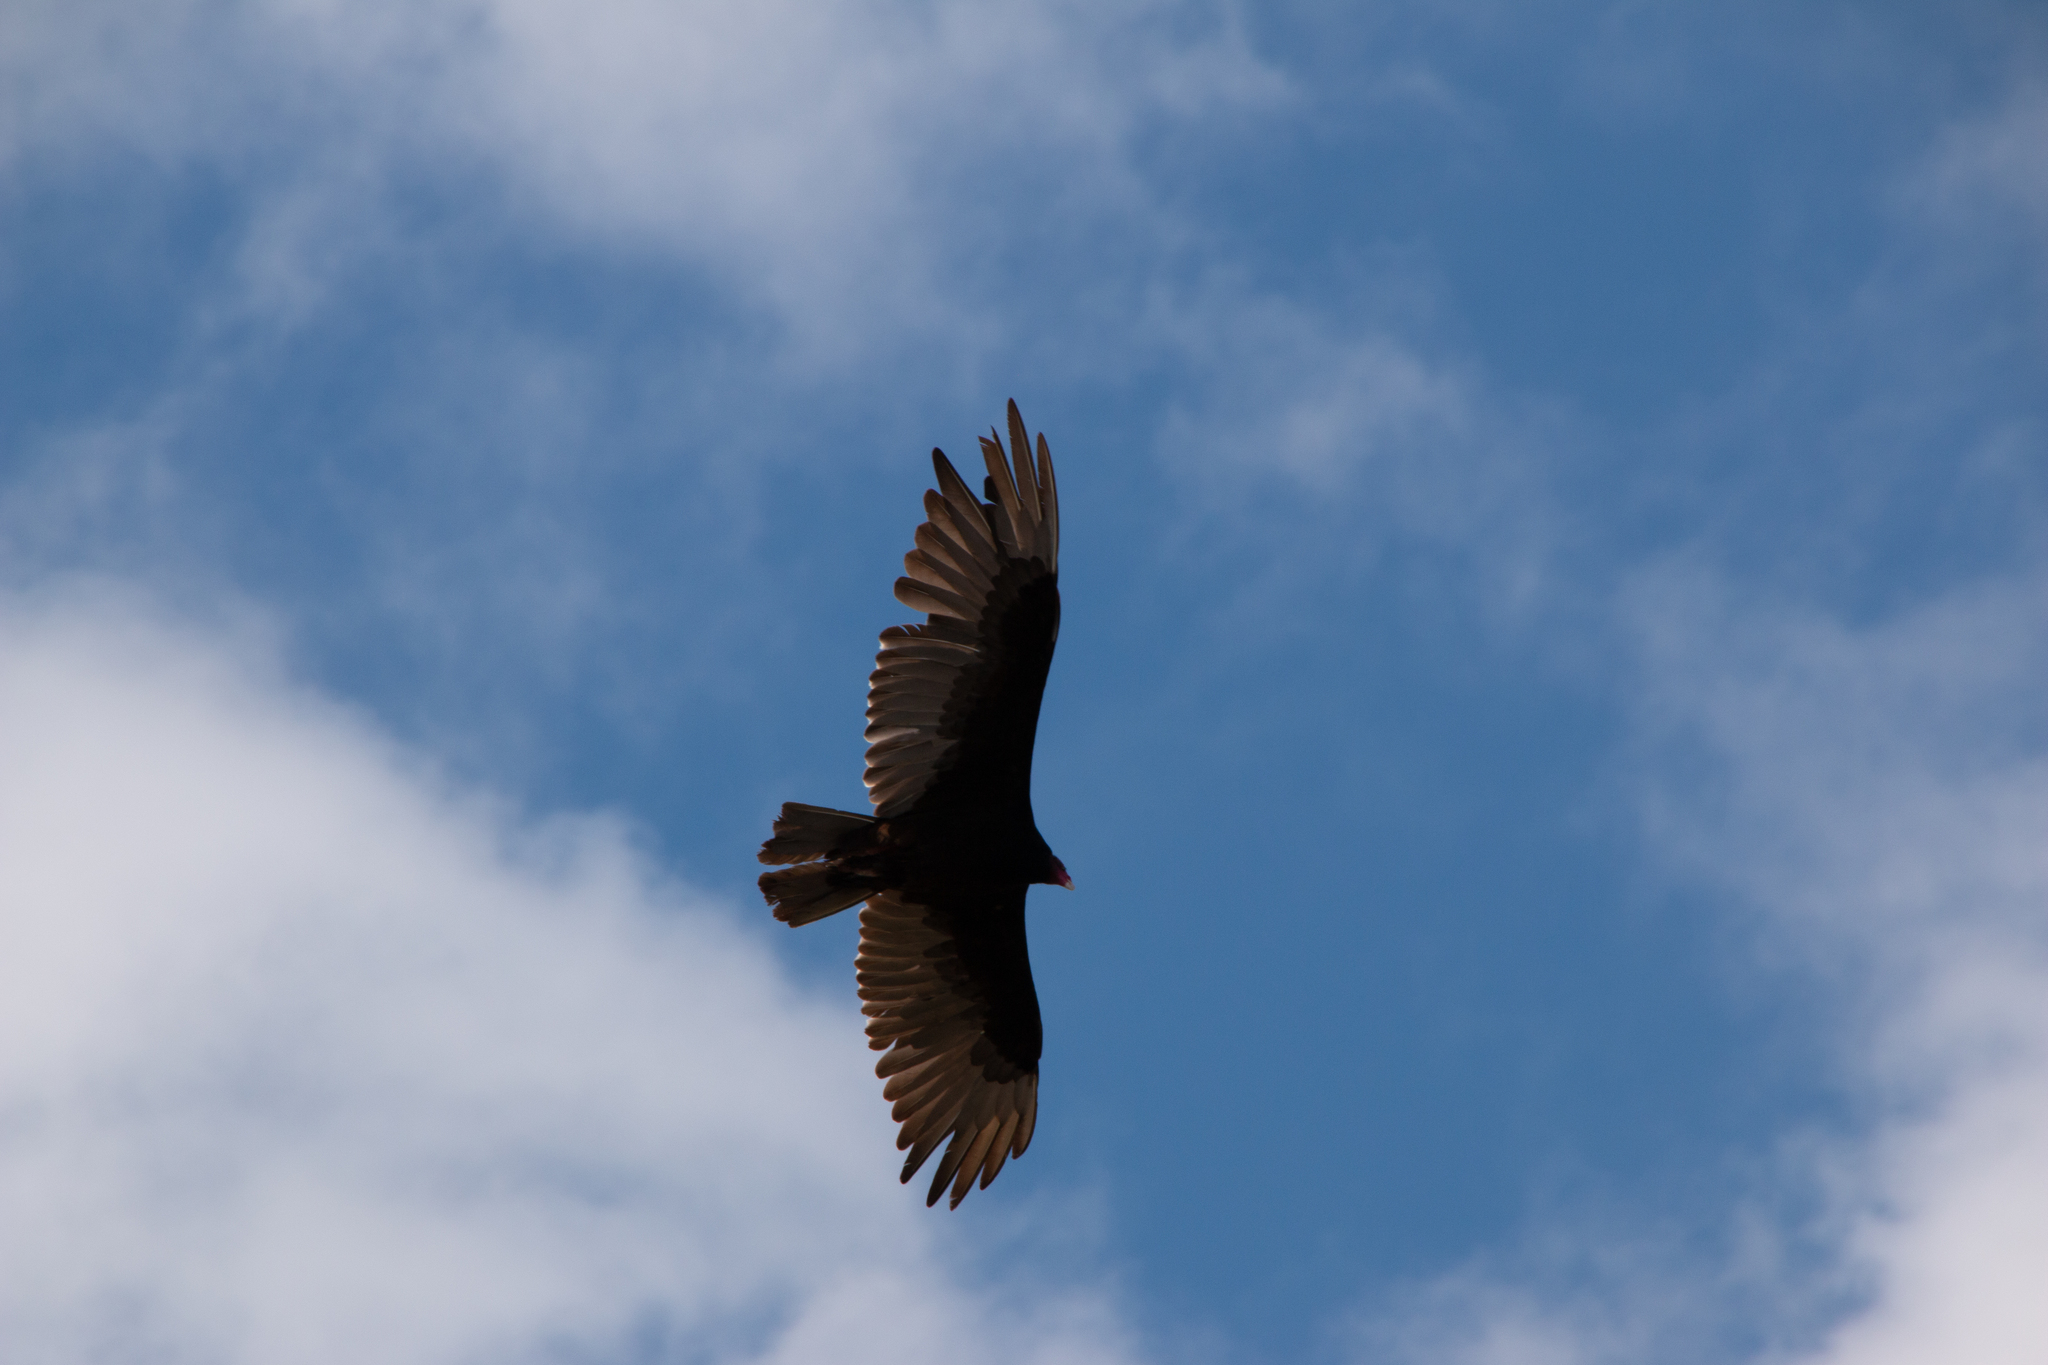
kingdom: Animalia
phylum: Chordata
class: Aves
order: Accipitriformes
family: Cathartidae
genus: Cathartes
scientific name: Cathartes aura
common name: Turkey vulture
